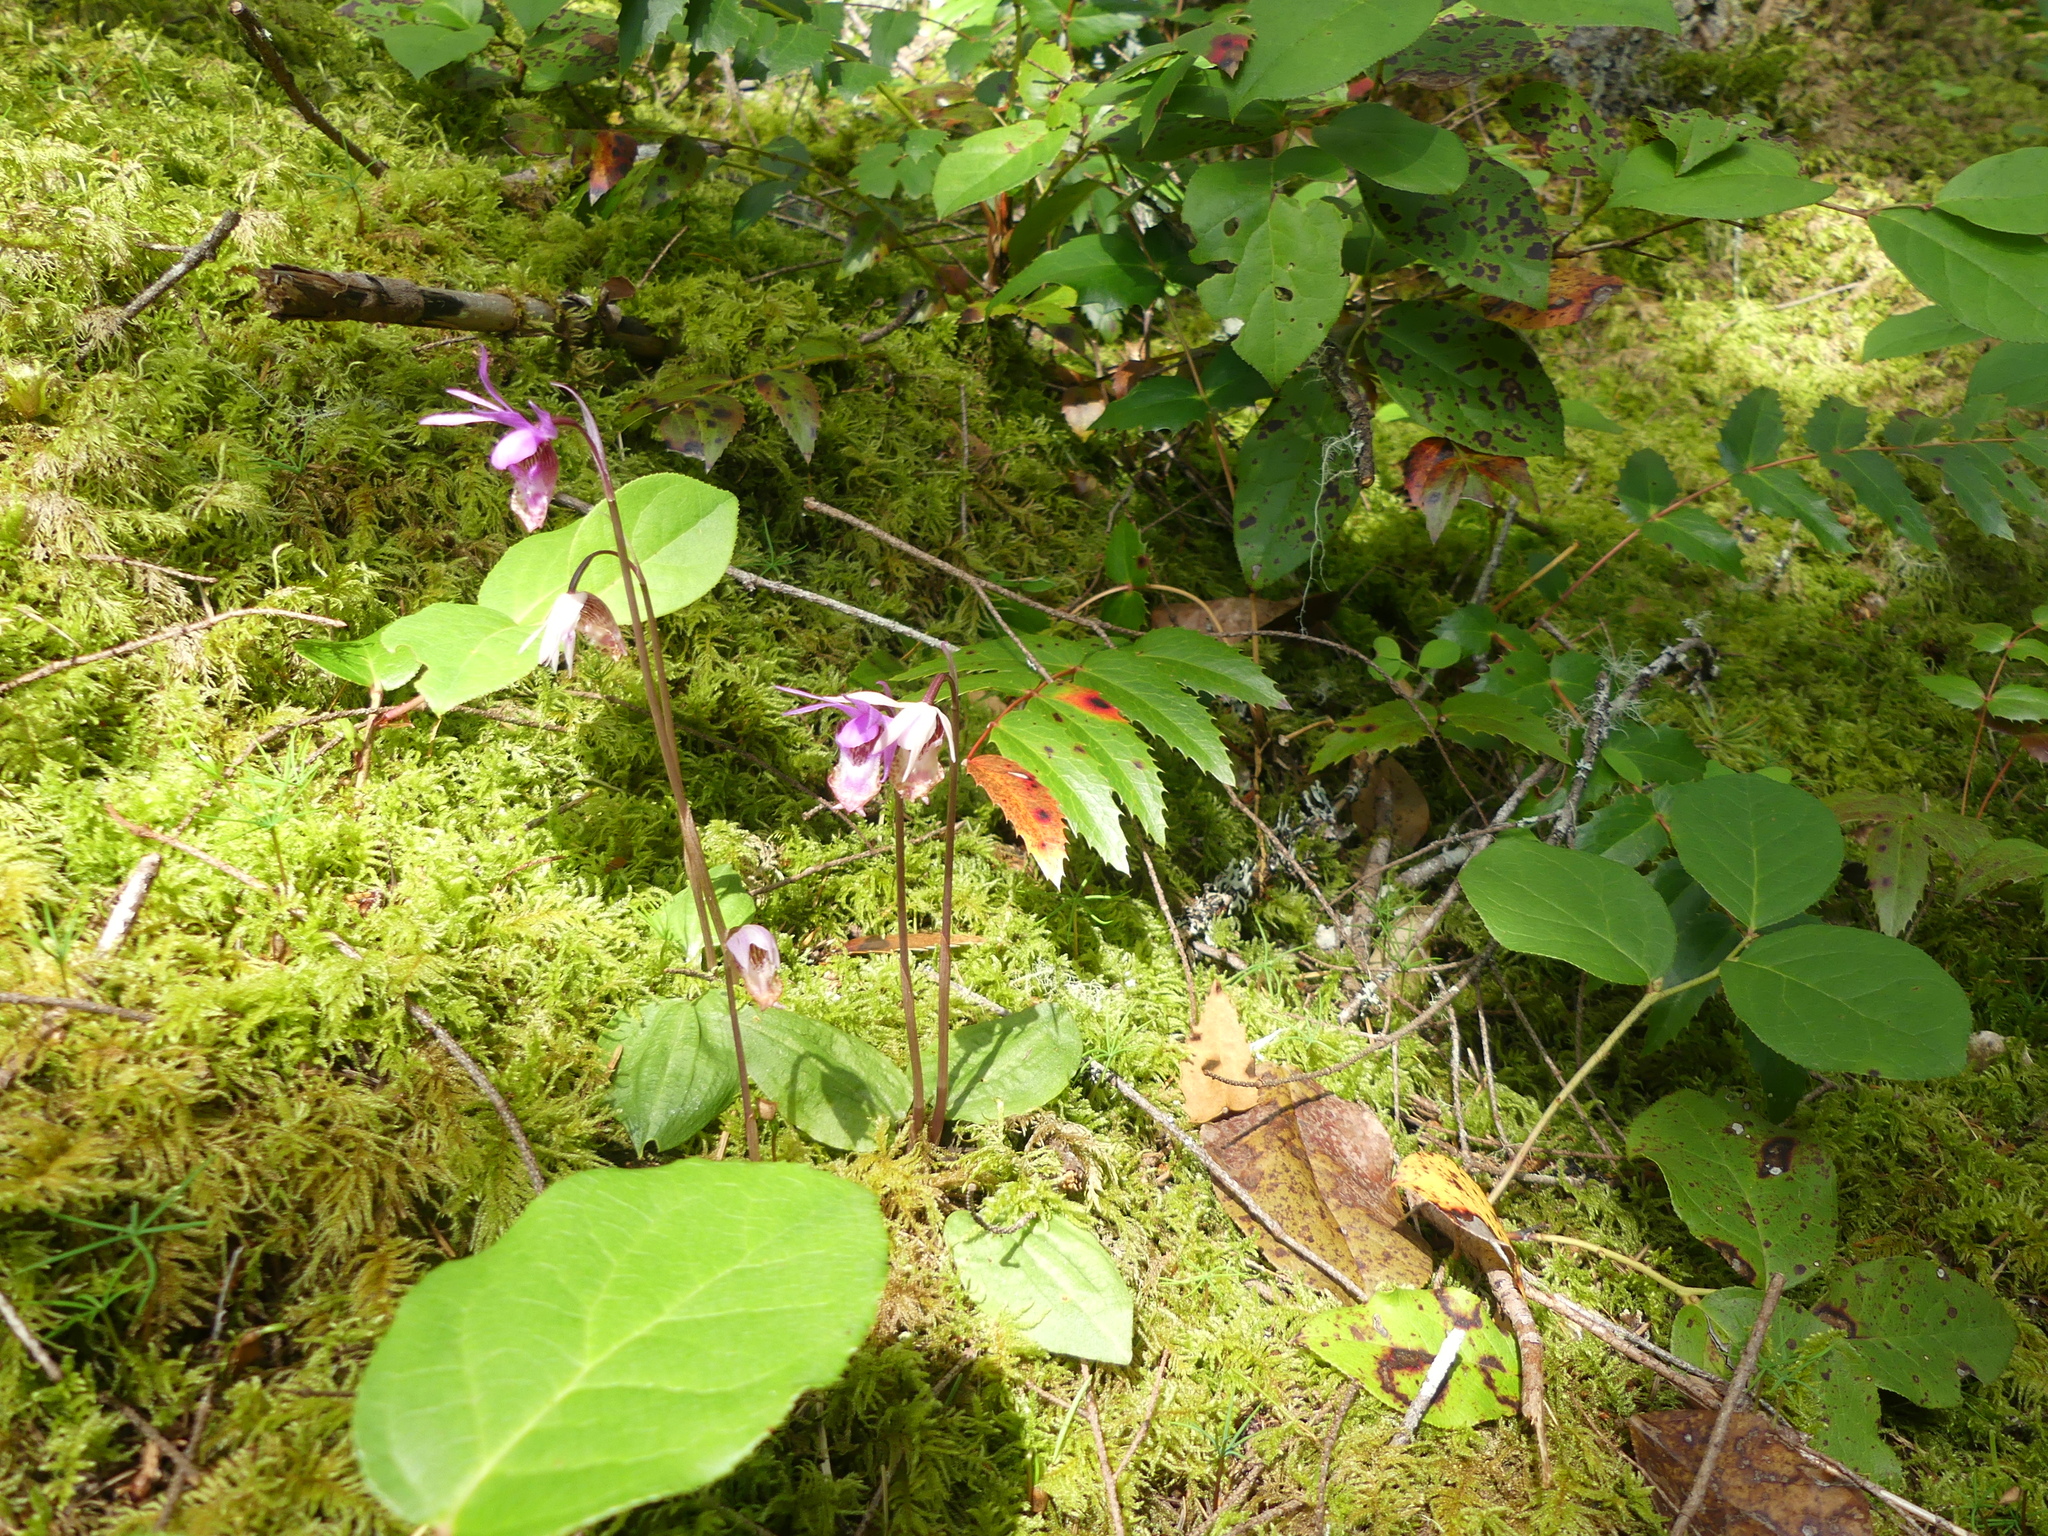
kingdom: Plantae
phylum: Tracheophyta
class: Liliopsida
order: Asparagales
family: Orchidaceae
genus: Calypso
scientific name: Calypso bulbosa
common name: Calypso
